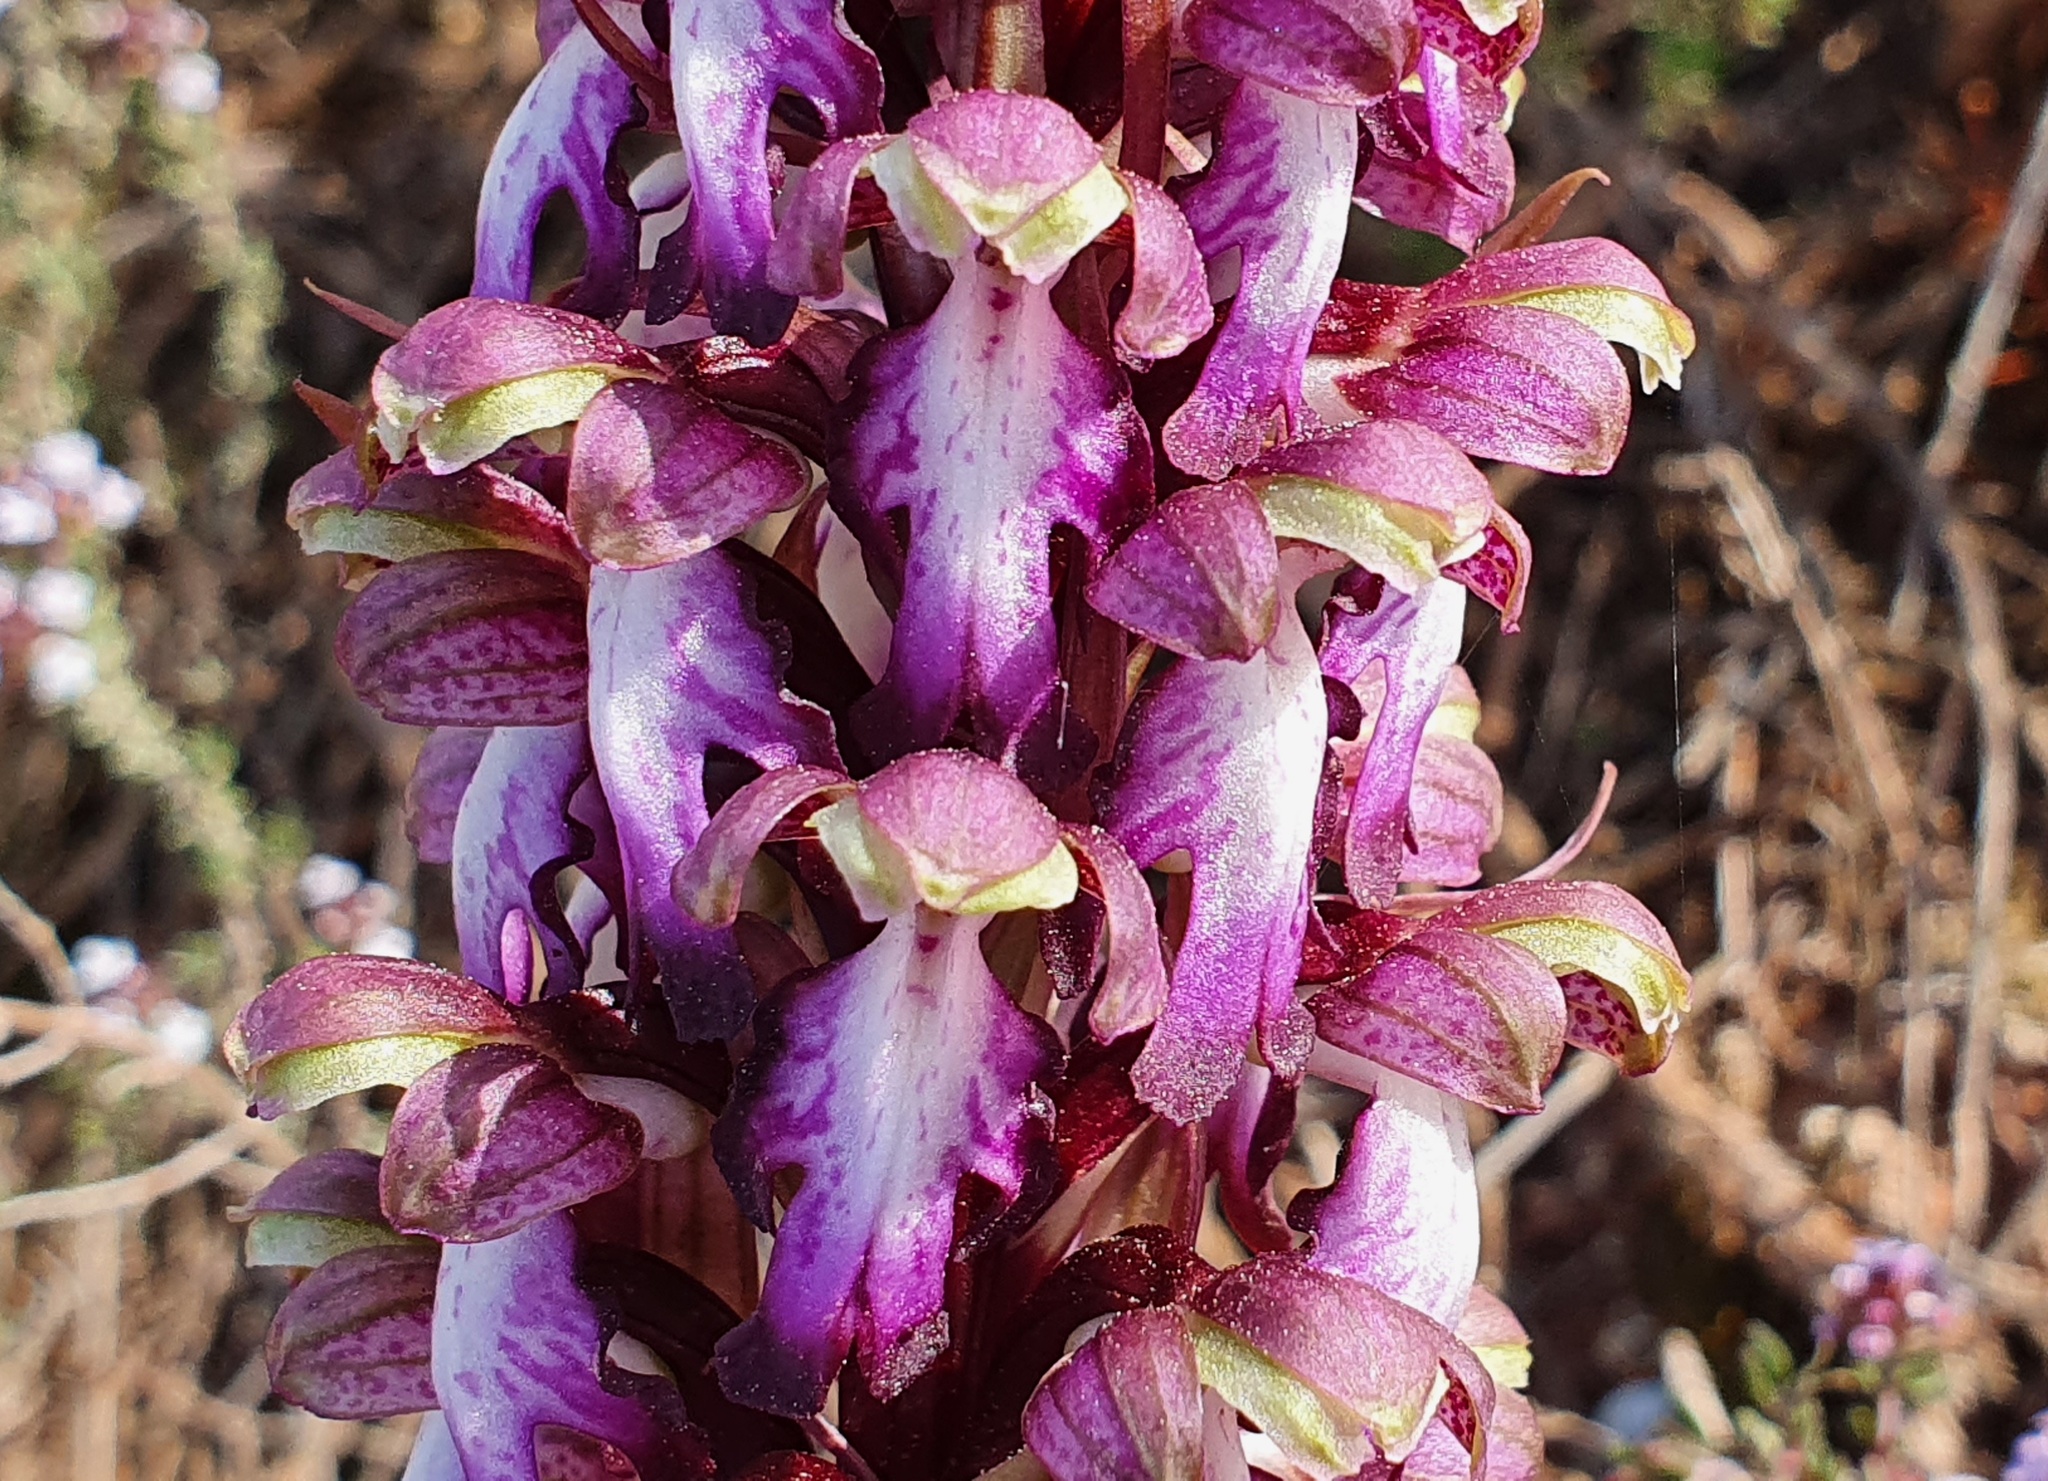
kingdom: Plantae
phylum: Tracheophyta
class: Liliopsida
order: Asparagales
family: Orchidaceae
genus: Himantoglossum
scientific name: Himantoglossum robertianum
